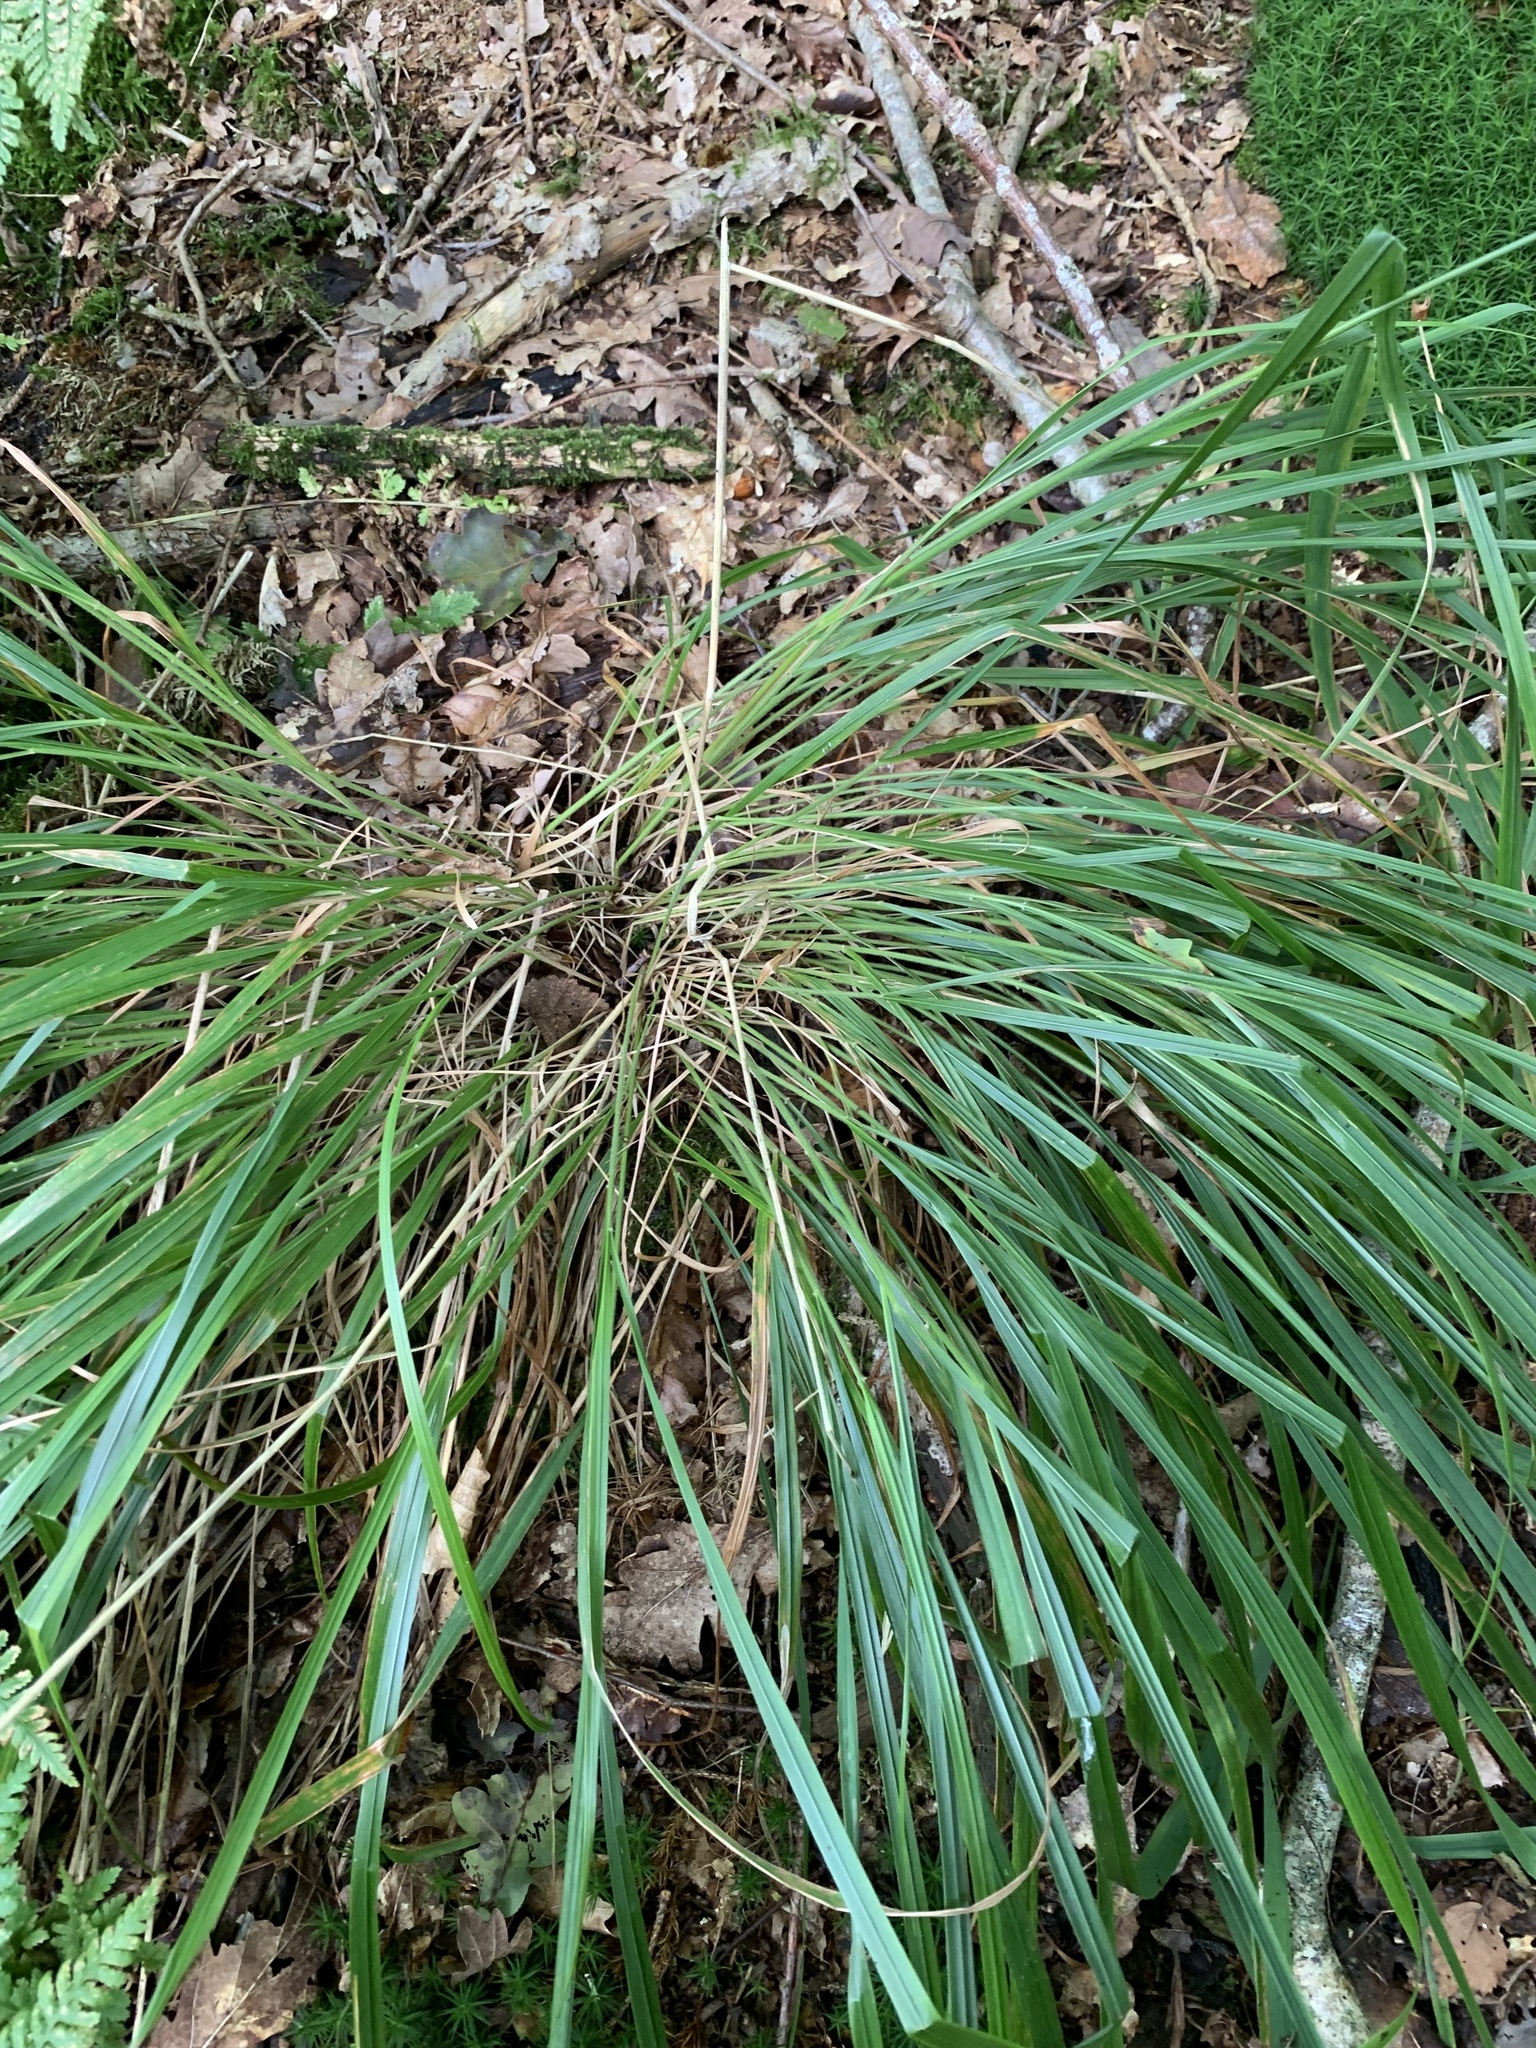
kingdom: Plantae
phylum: Tracheophyta
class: Liliopsida
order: Poales
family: Poaceae
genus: Calamagrostis
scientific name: Calamagrostis arundinacea
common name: Metskastik
